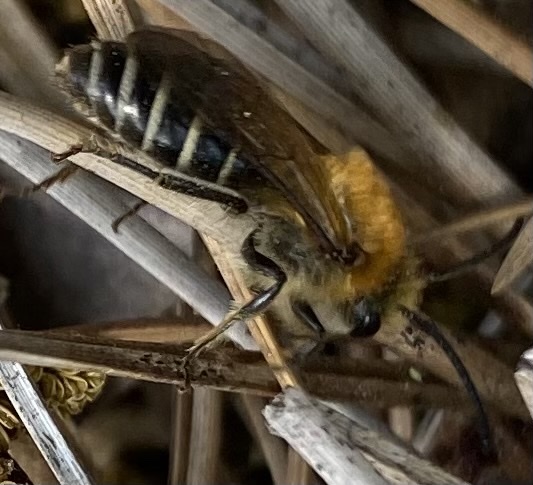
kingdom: Animalia
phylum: Arthropoda
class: Insecta
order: Hymenoptera
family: Colletidae
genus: Colletes
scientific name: Colletes thoracicus
